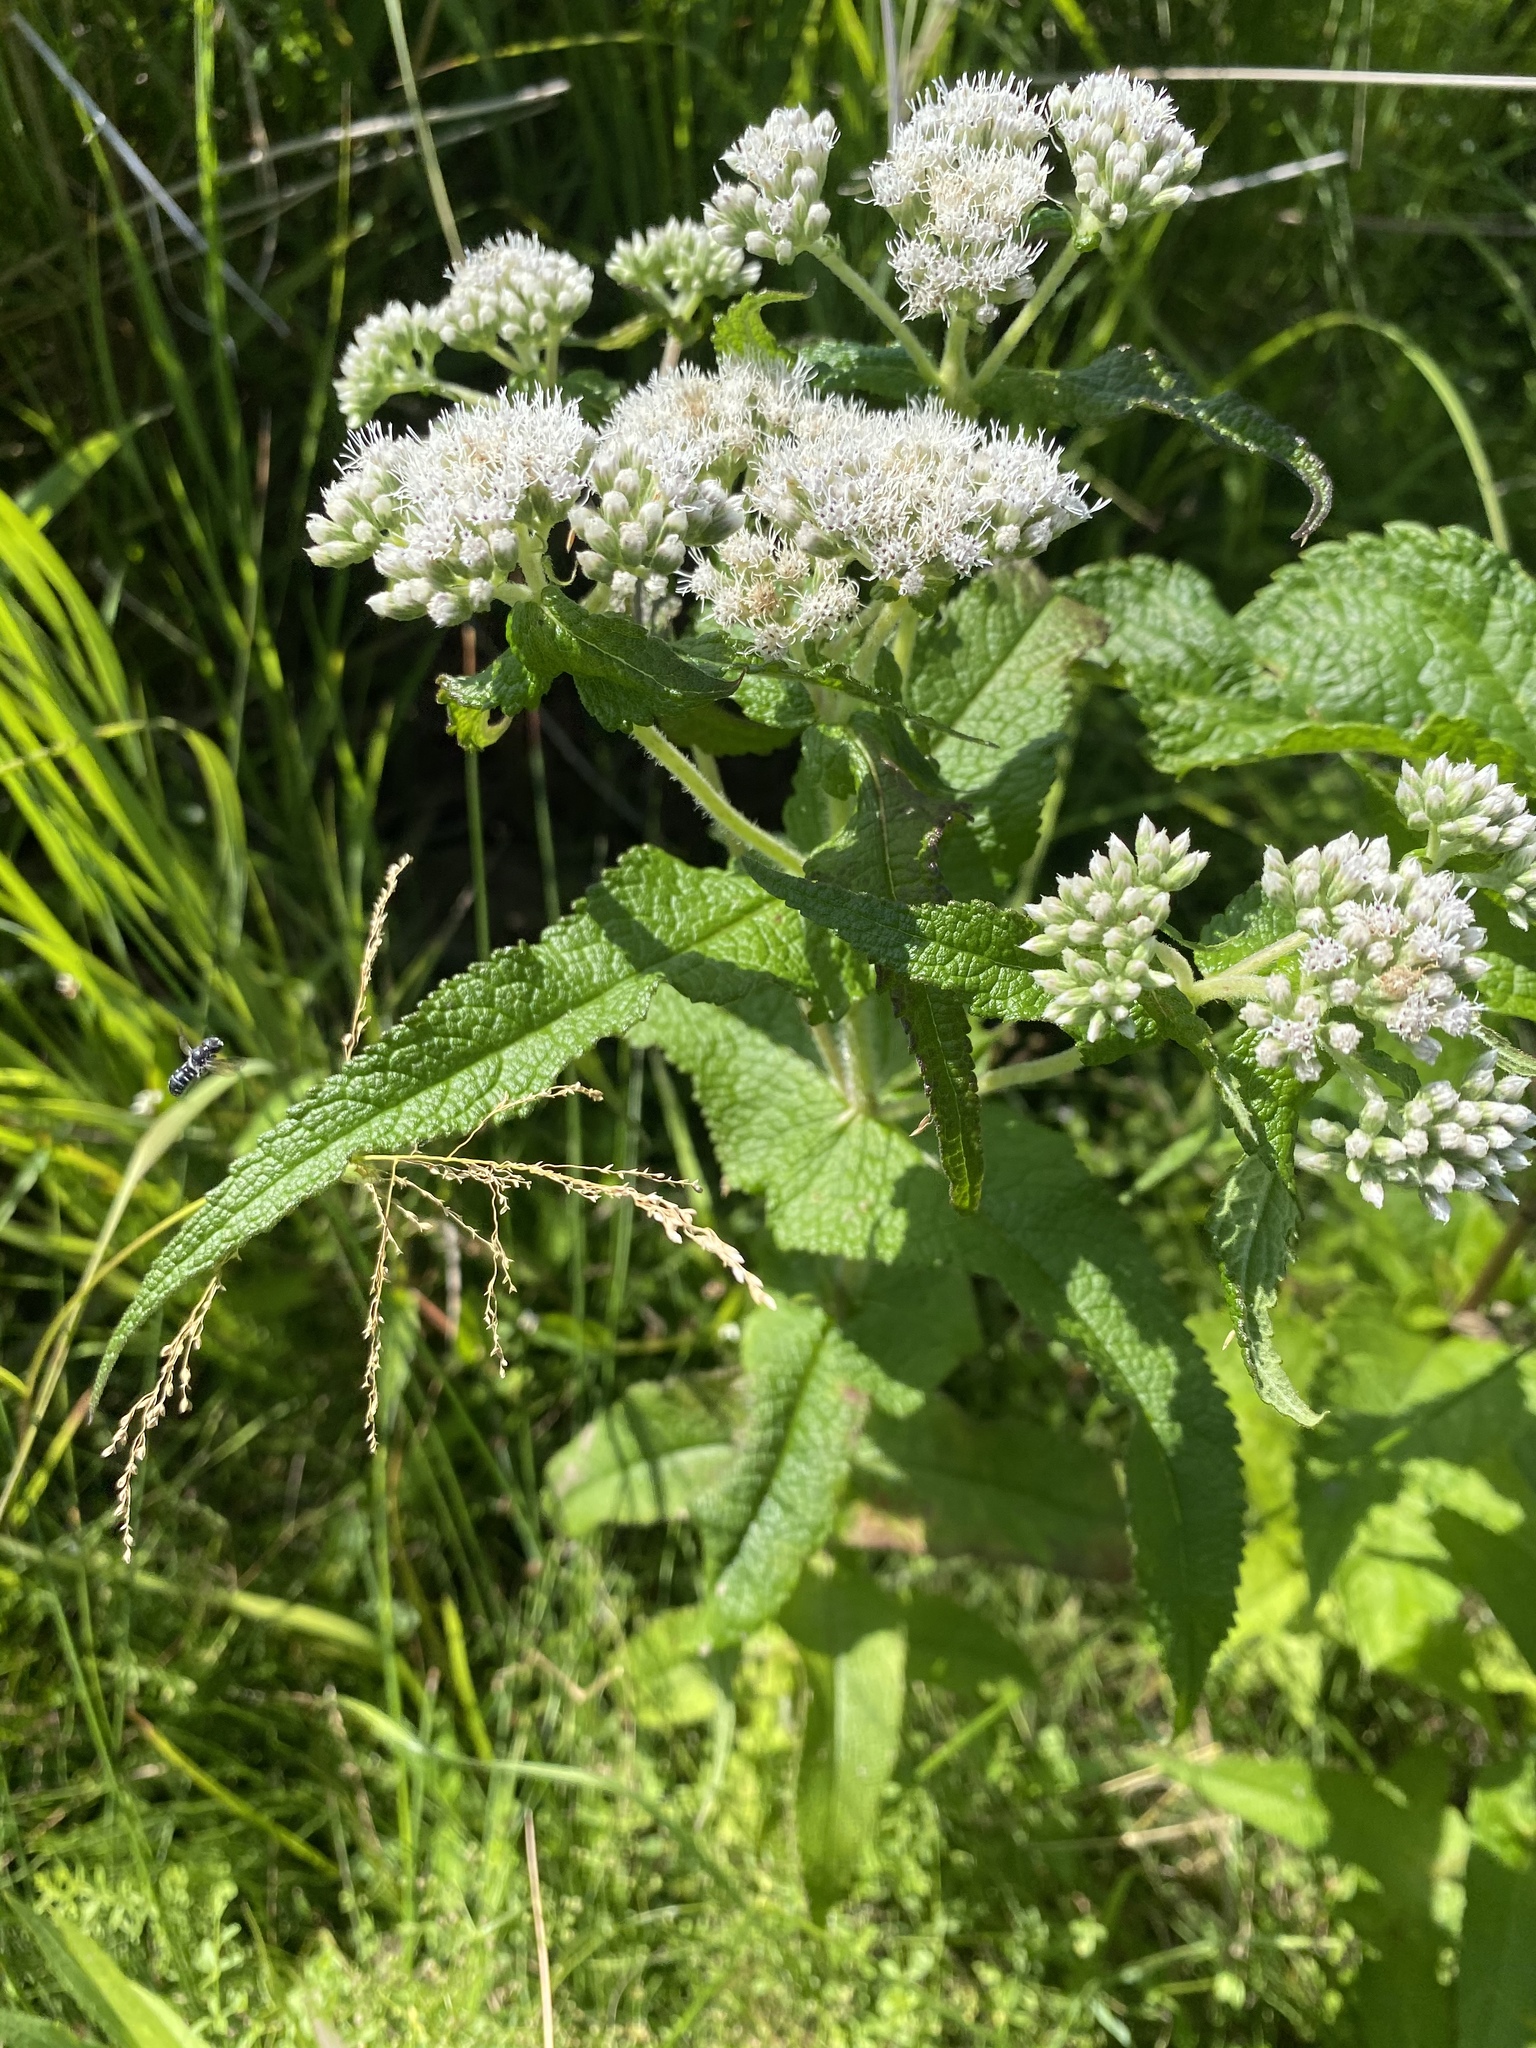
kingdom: Plantae
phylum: Tracheophyta
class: Magnoliopsida
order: Asterales
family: Asteraceae
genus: Eupatorium
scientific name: Eupatorium perfoliatum
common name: Boneset
